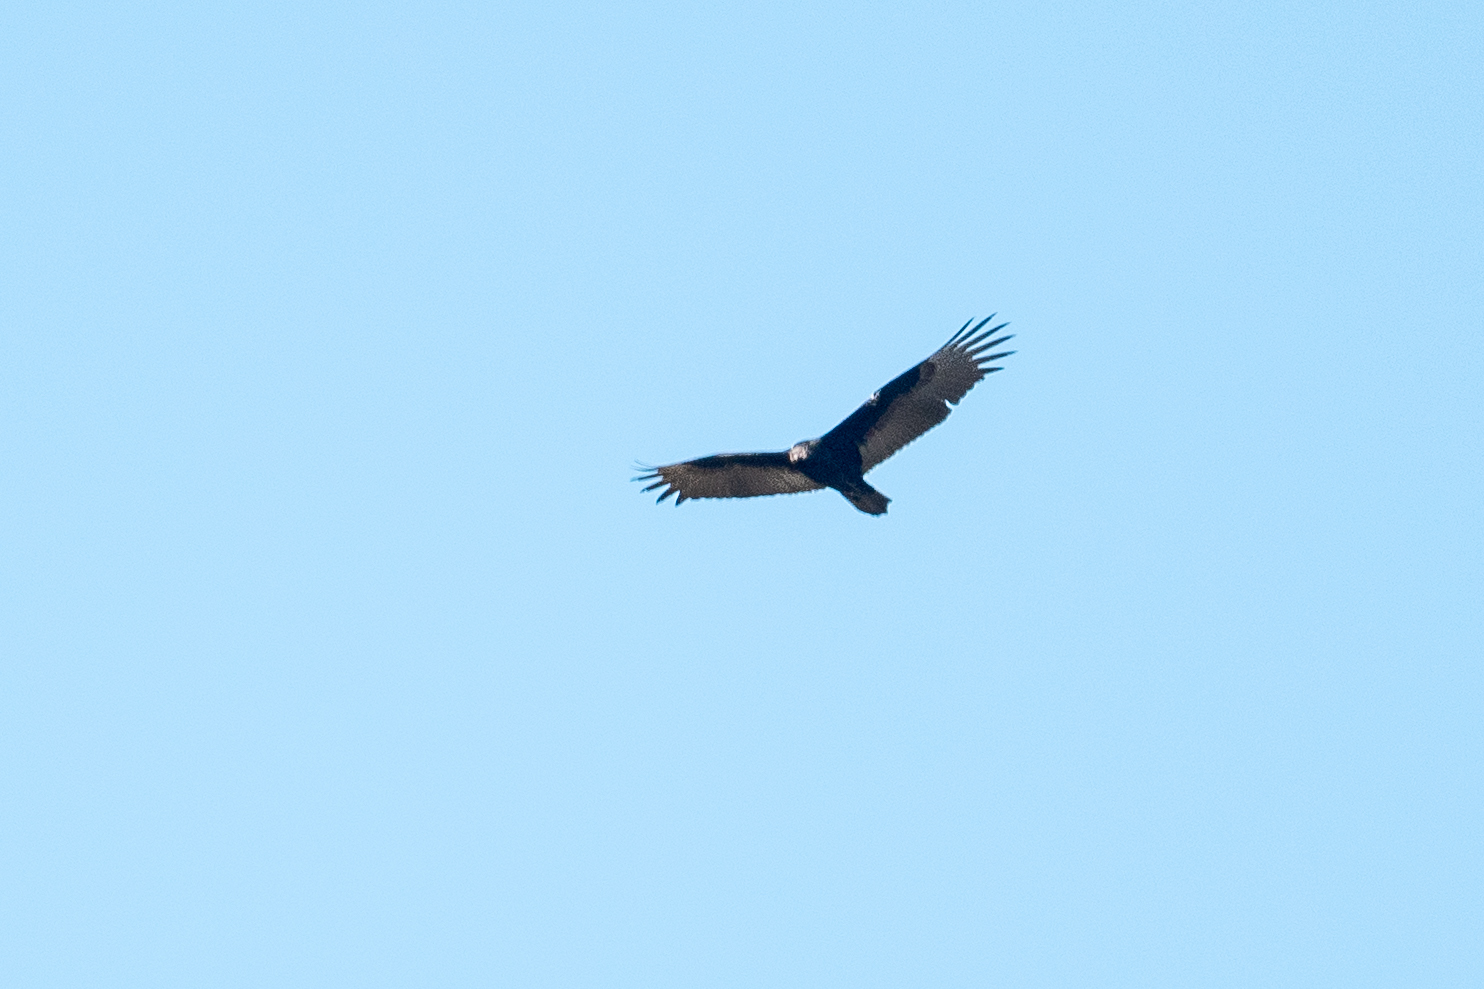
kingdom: Animalia
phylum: Chordata
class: Aves
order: Accipitriformes
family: Cathartidae
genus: Cathartes
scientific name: Cathartes aura
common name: Turkey vulture
